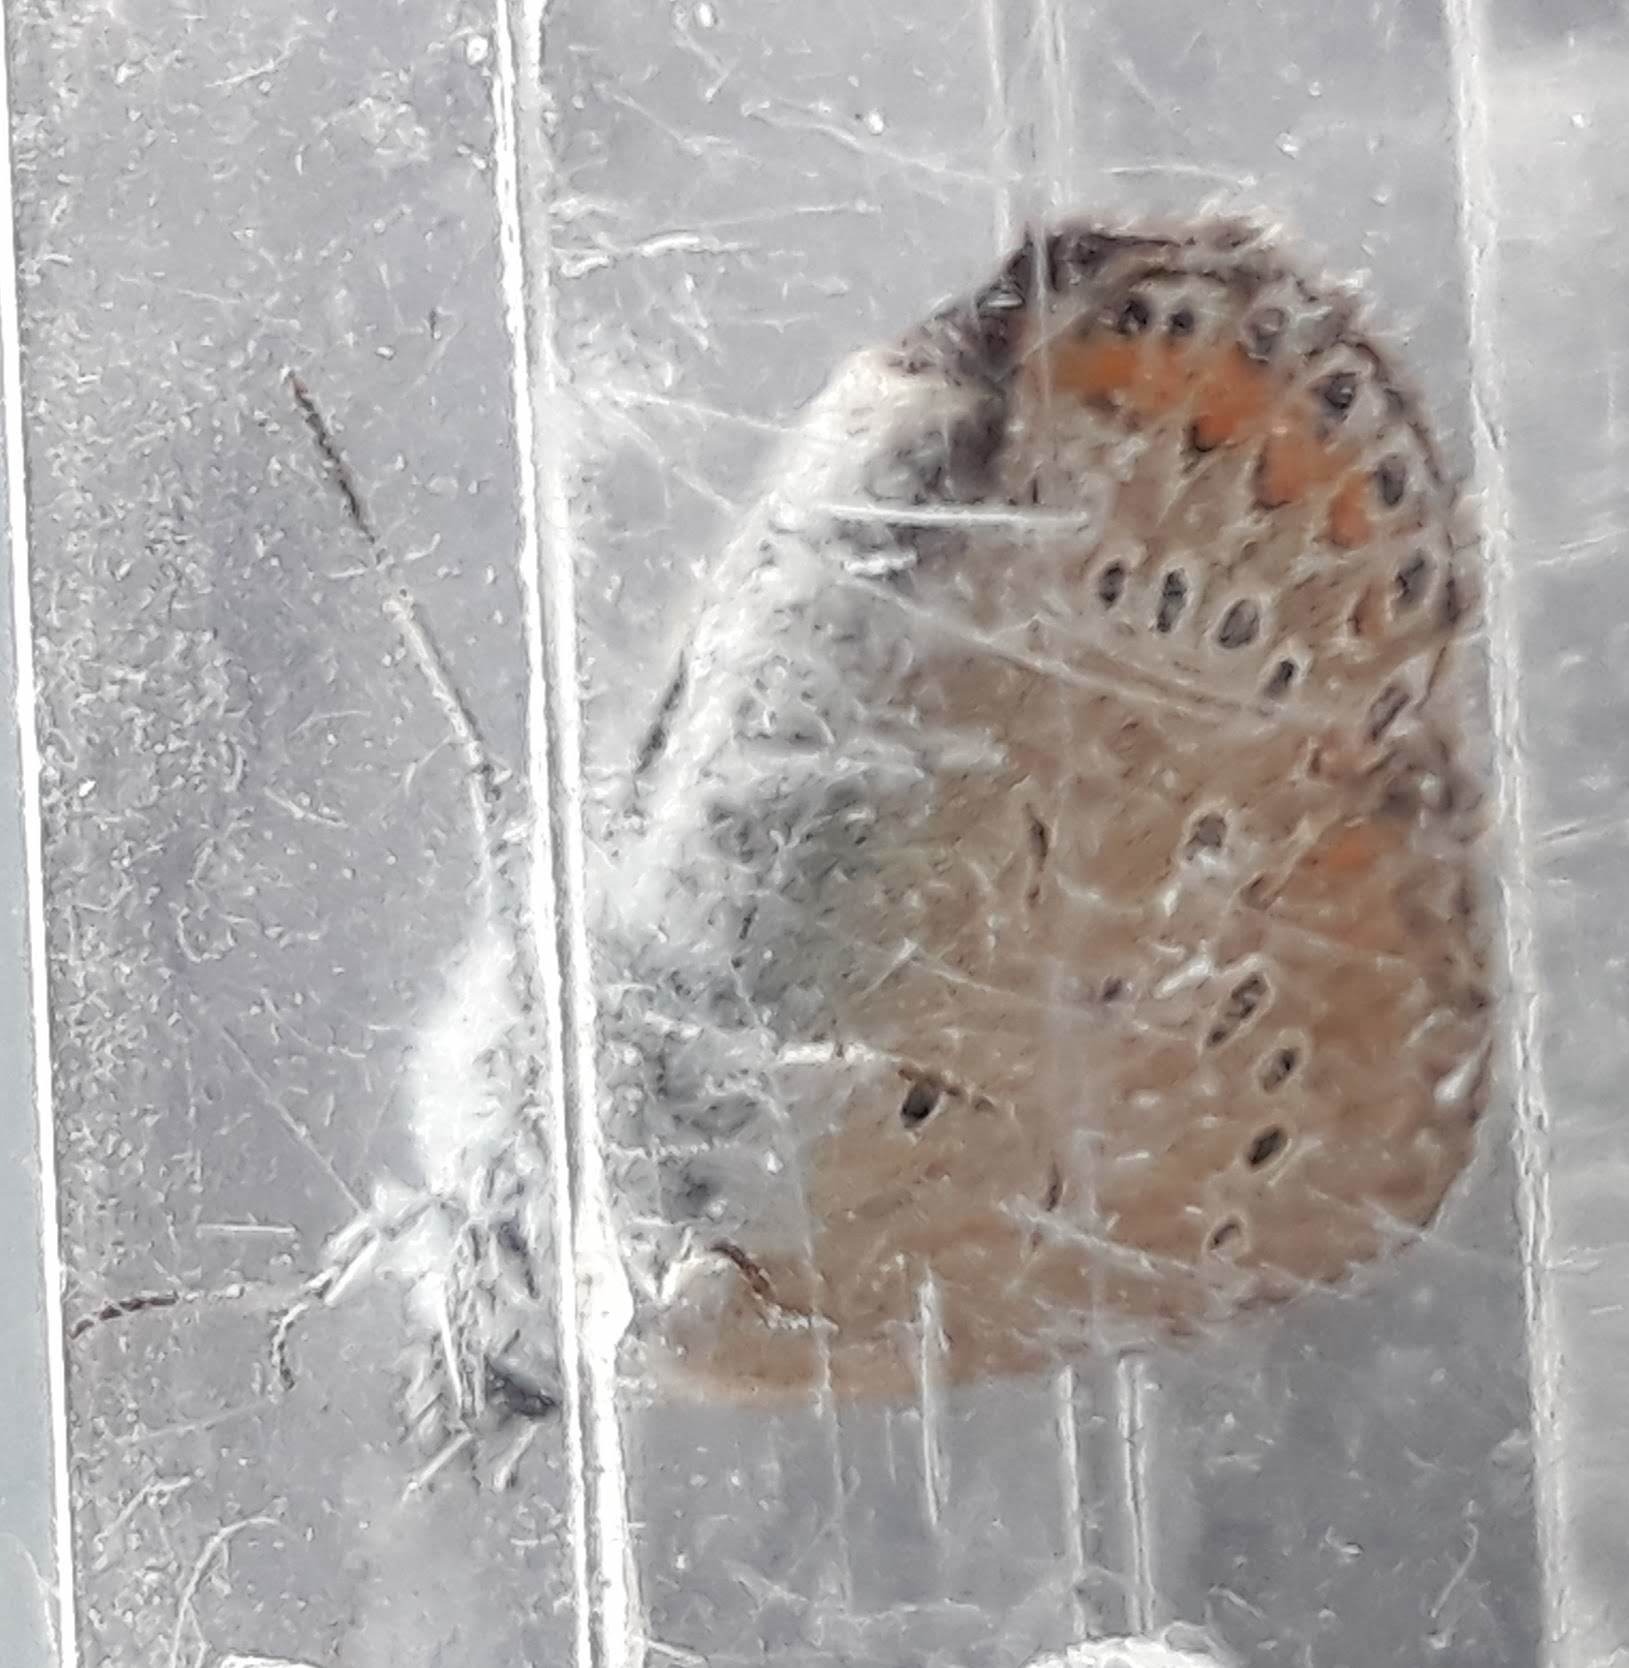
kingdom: Animalia
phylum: Arthropoda
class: Insecta
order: Lepidoptera
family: Lycaenidae
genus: Plebejus
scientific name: Plebejus amanda
